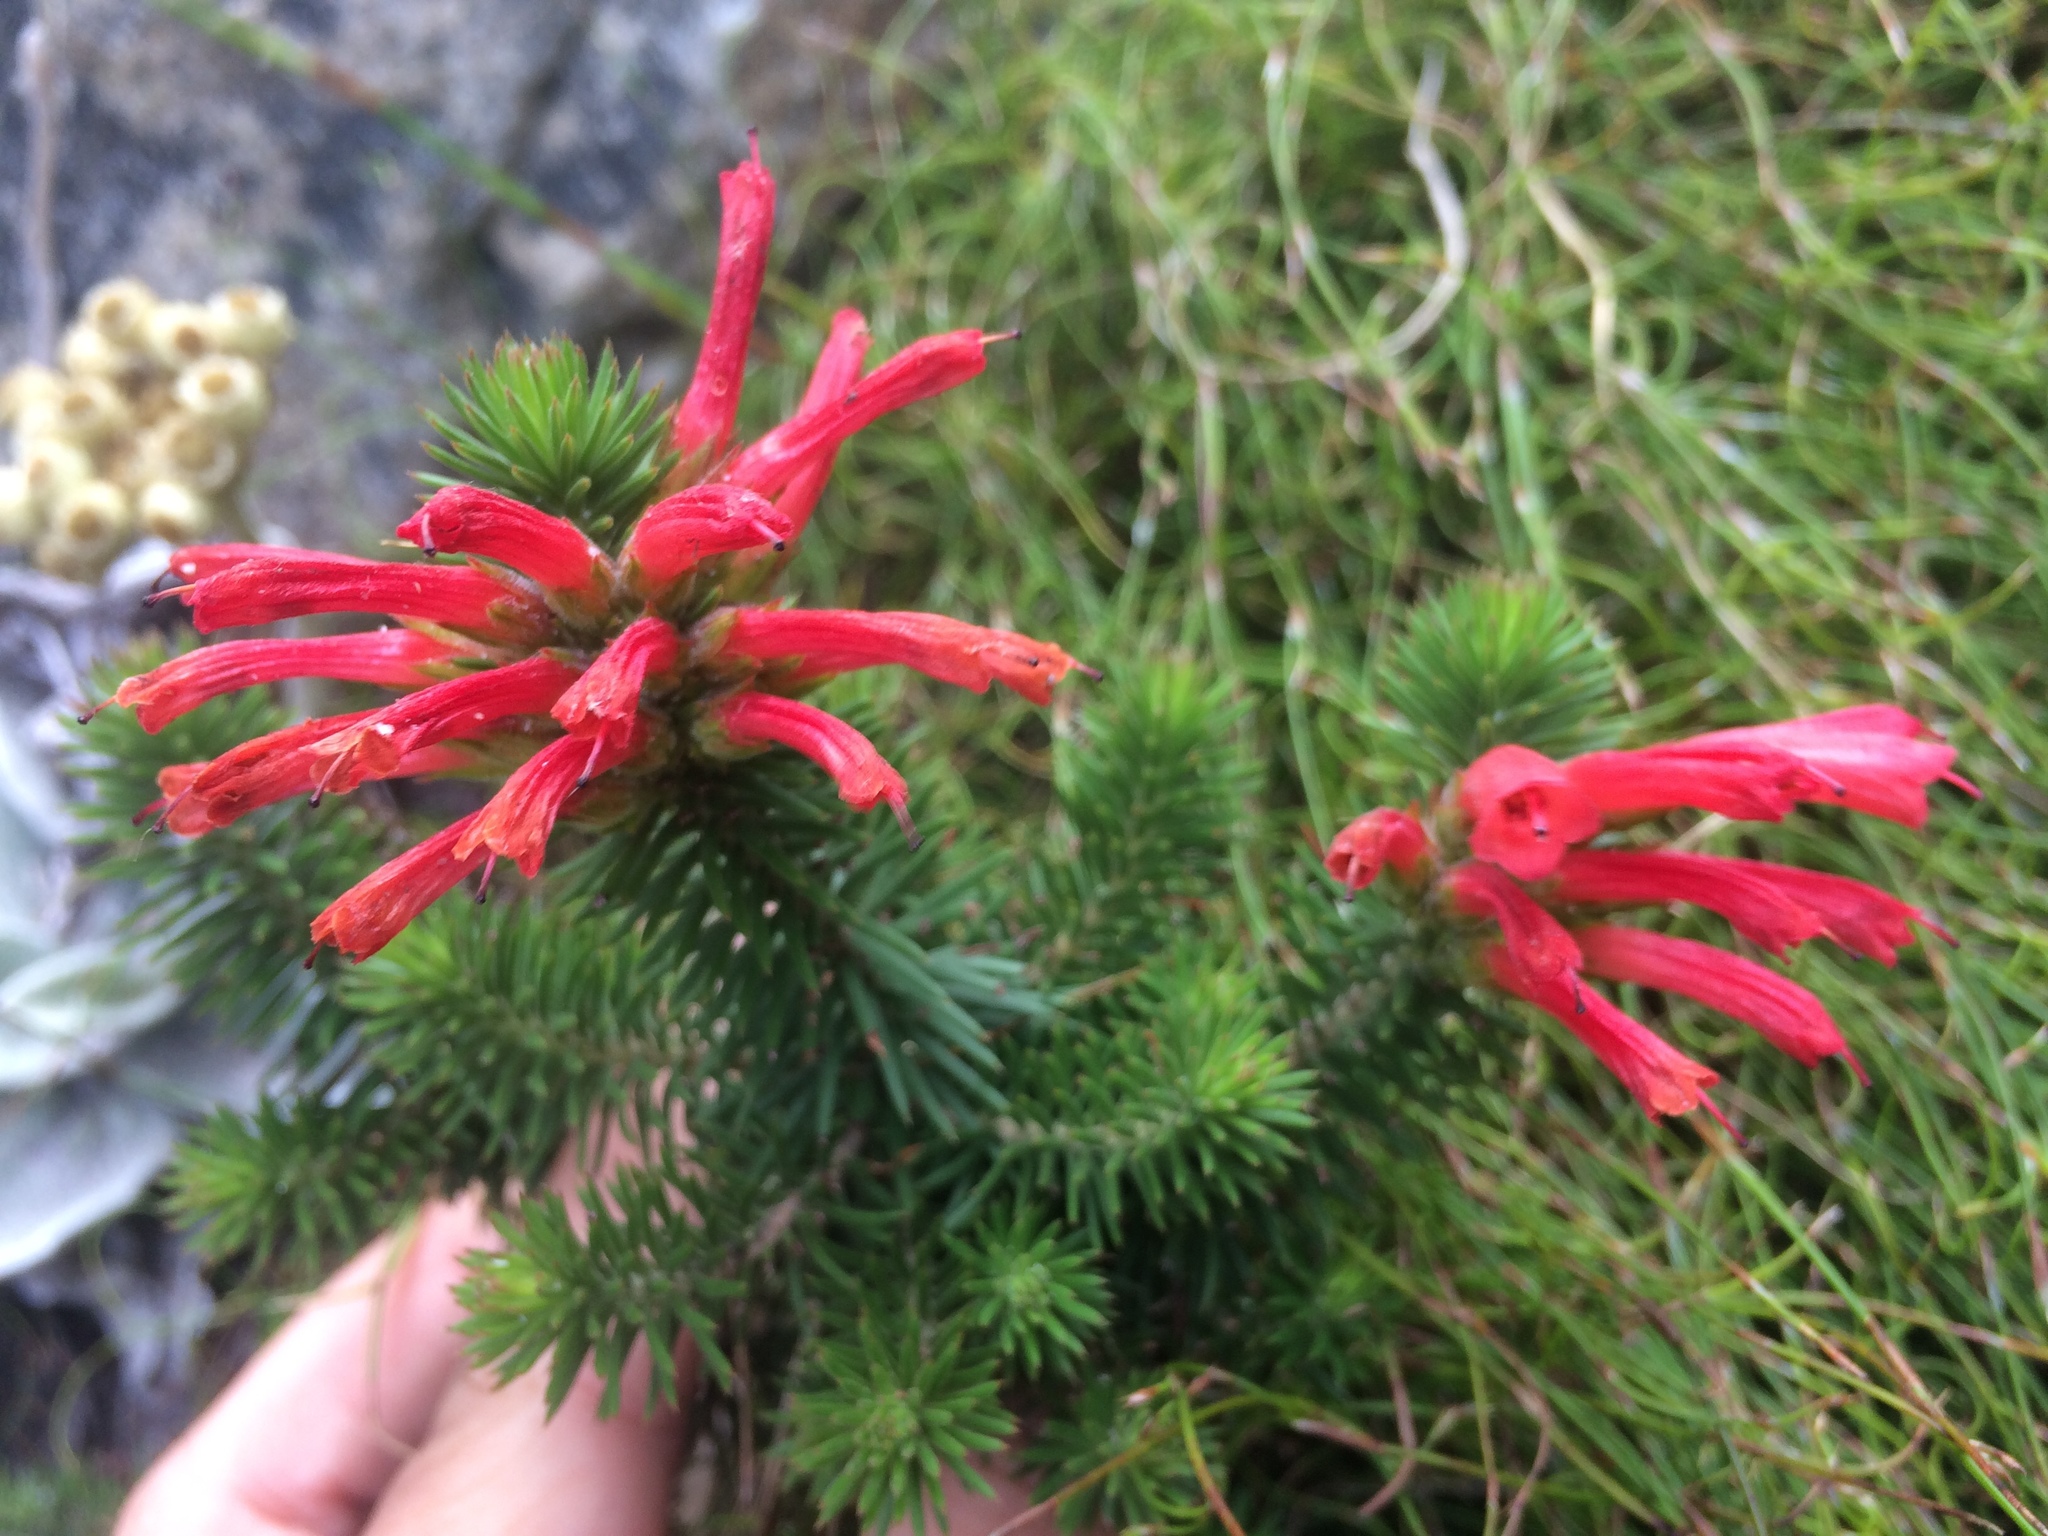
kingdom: Plantae
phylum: Tracheophyta
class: Magnoliopsida
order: Ericales
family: Ericaceae
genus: Erica
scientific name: Erica abietina
